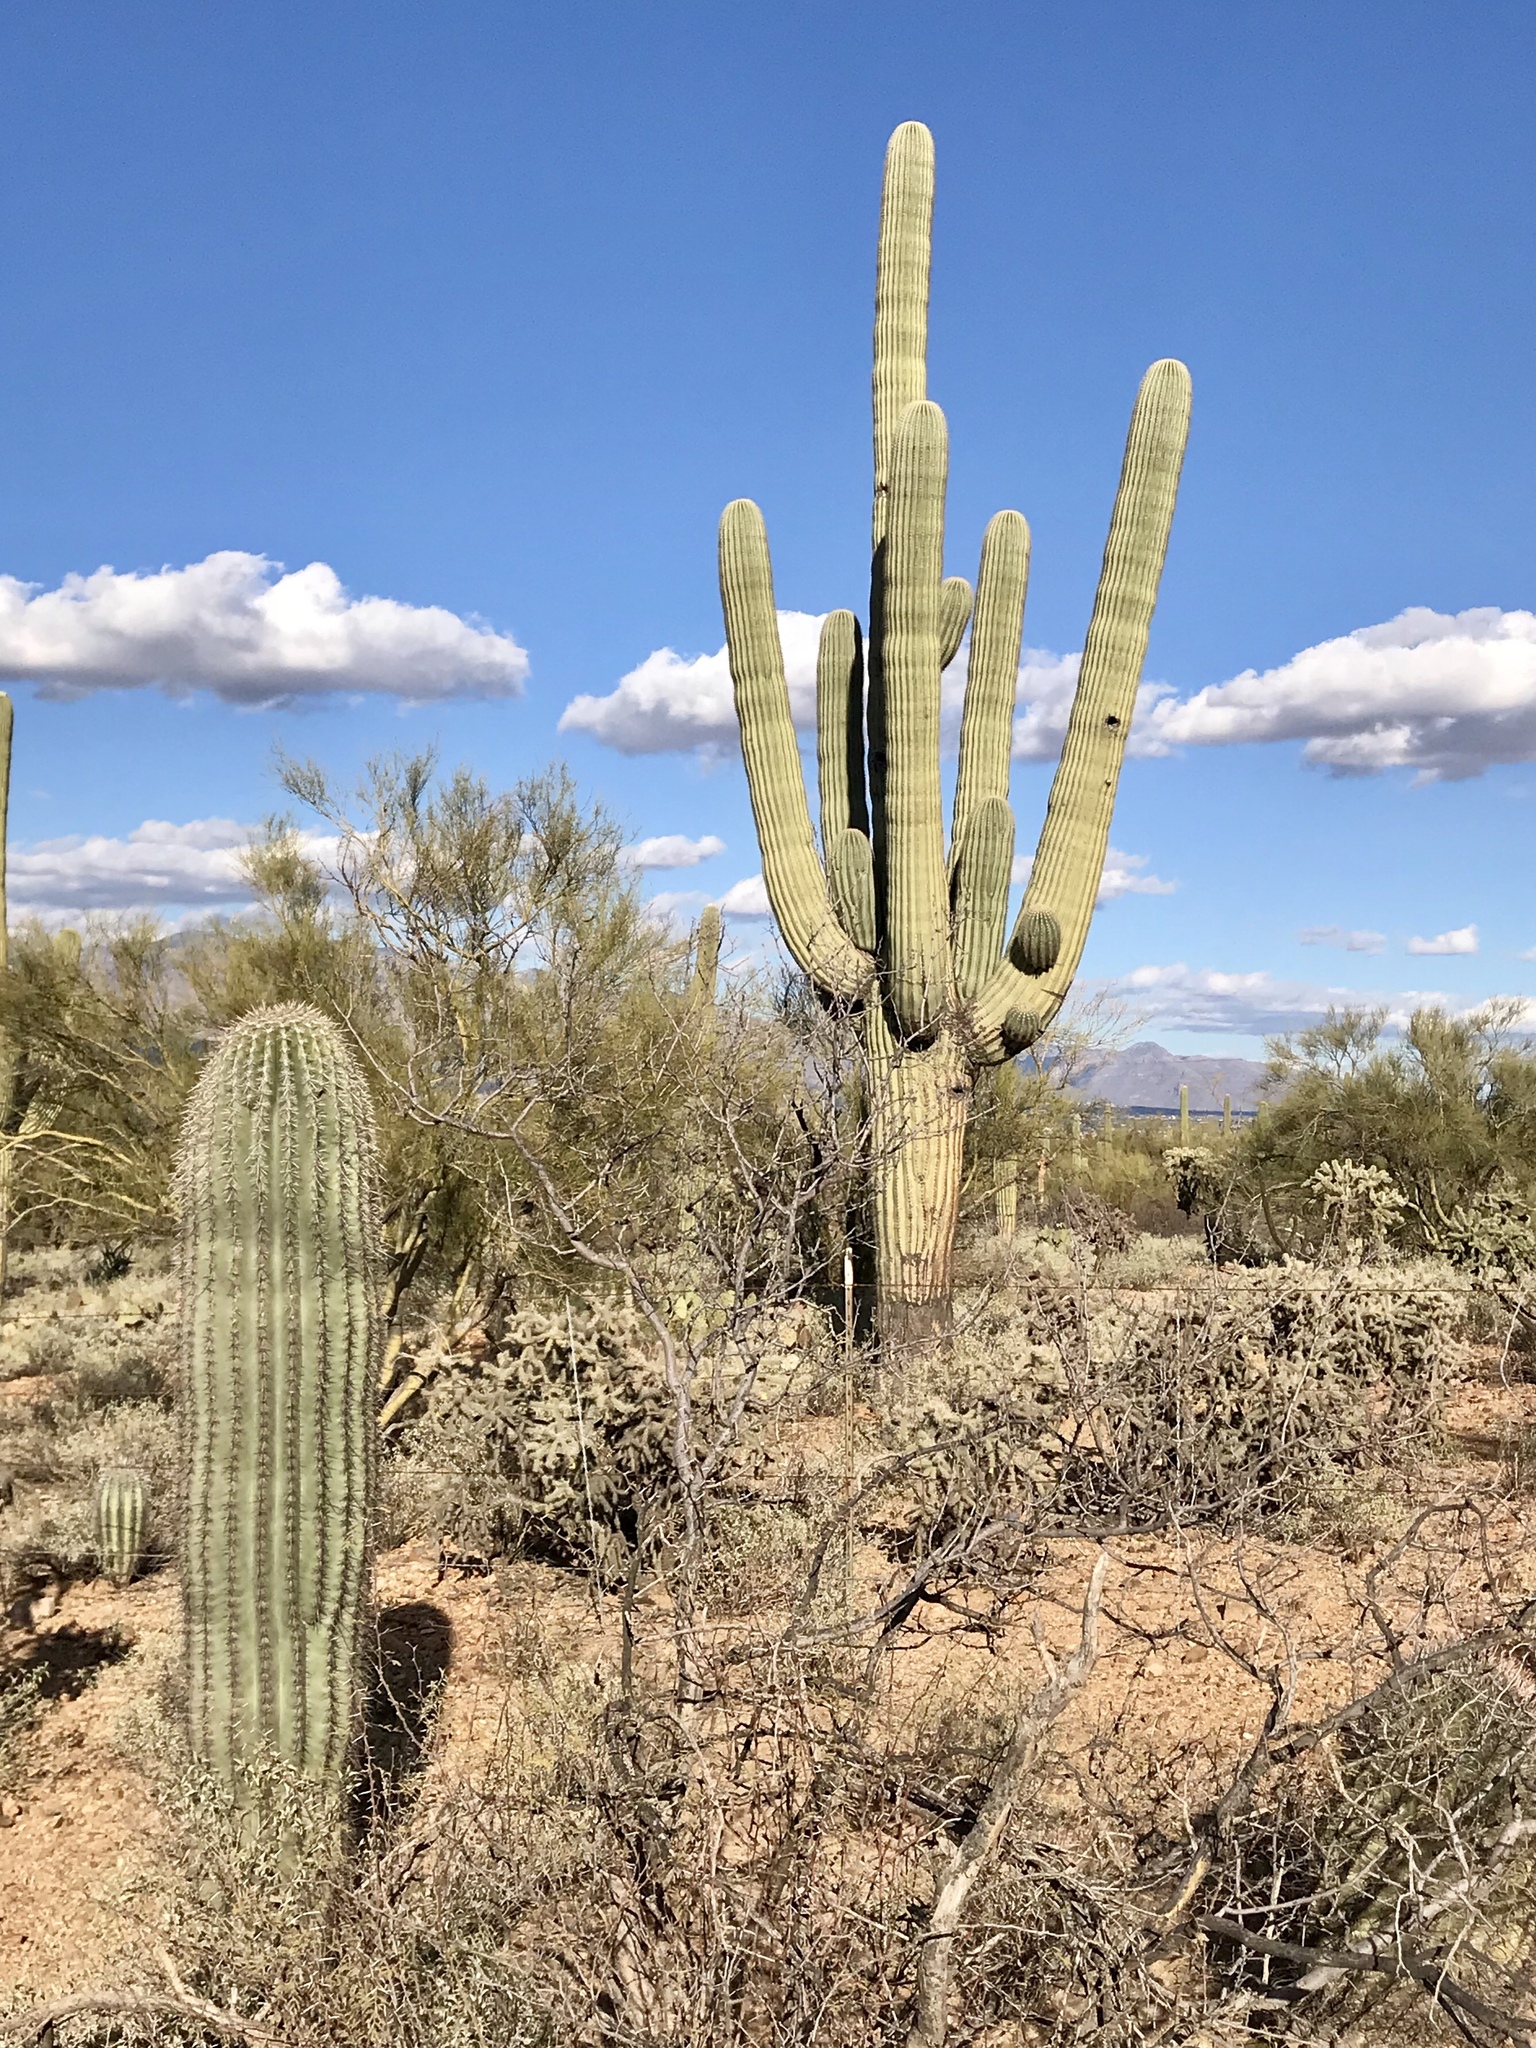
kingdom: Plantae
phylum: Tracheophyta
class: Magnoliopsida
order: Caryophyllales
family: Cactaceae
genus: Carnegiea
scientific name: Carnegiea gigantea
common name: Saguaro
